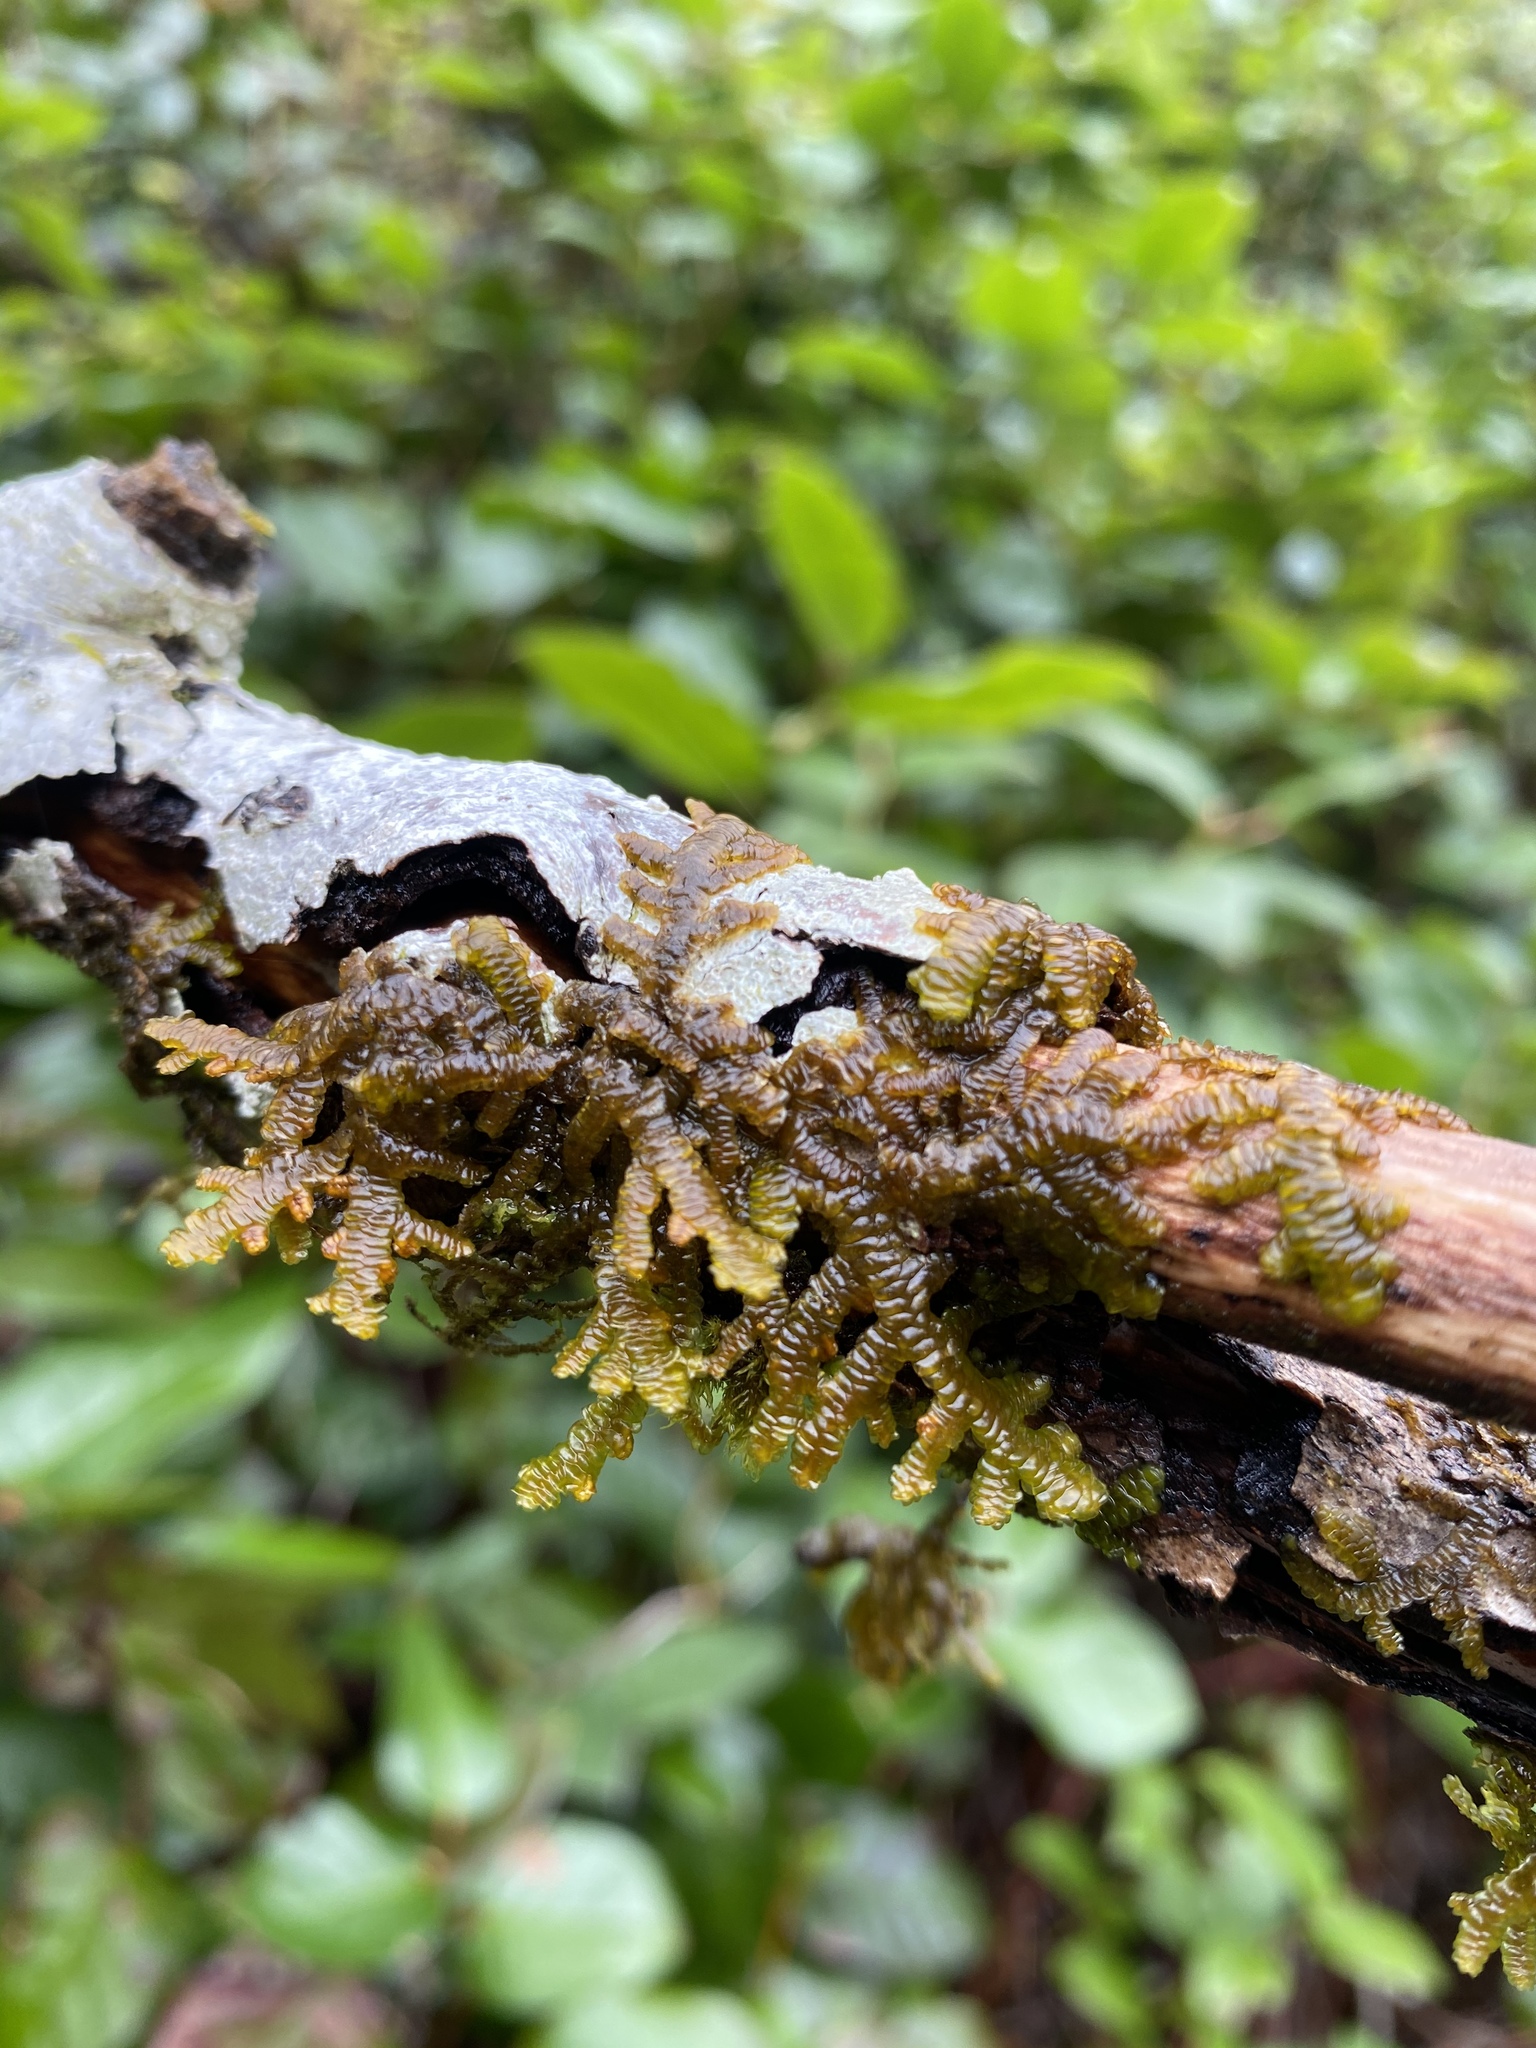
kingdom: Plantae
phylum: Marchantiophyta
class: Jungermanniopsida
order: Porellales
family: Porellaceae
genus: Porella
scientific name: Porella navicularis
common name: Tree ruffle liverwort
